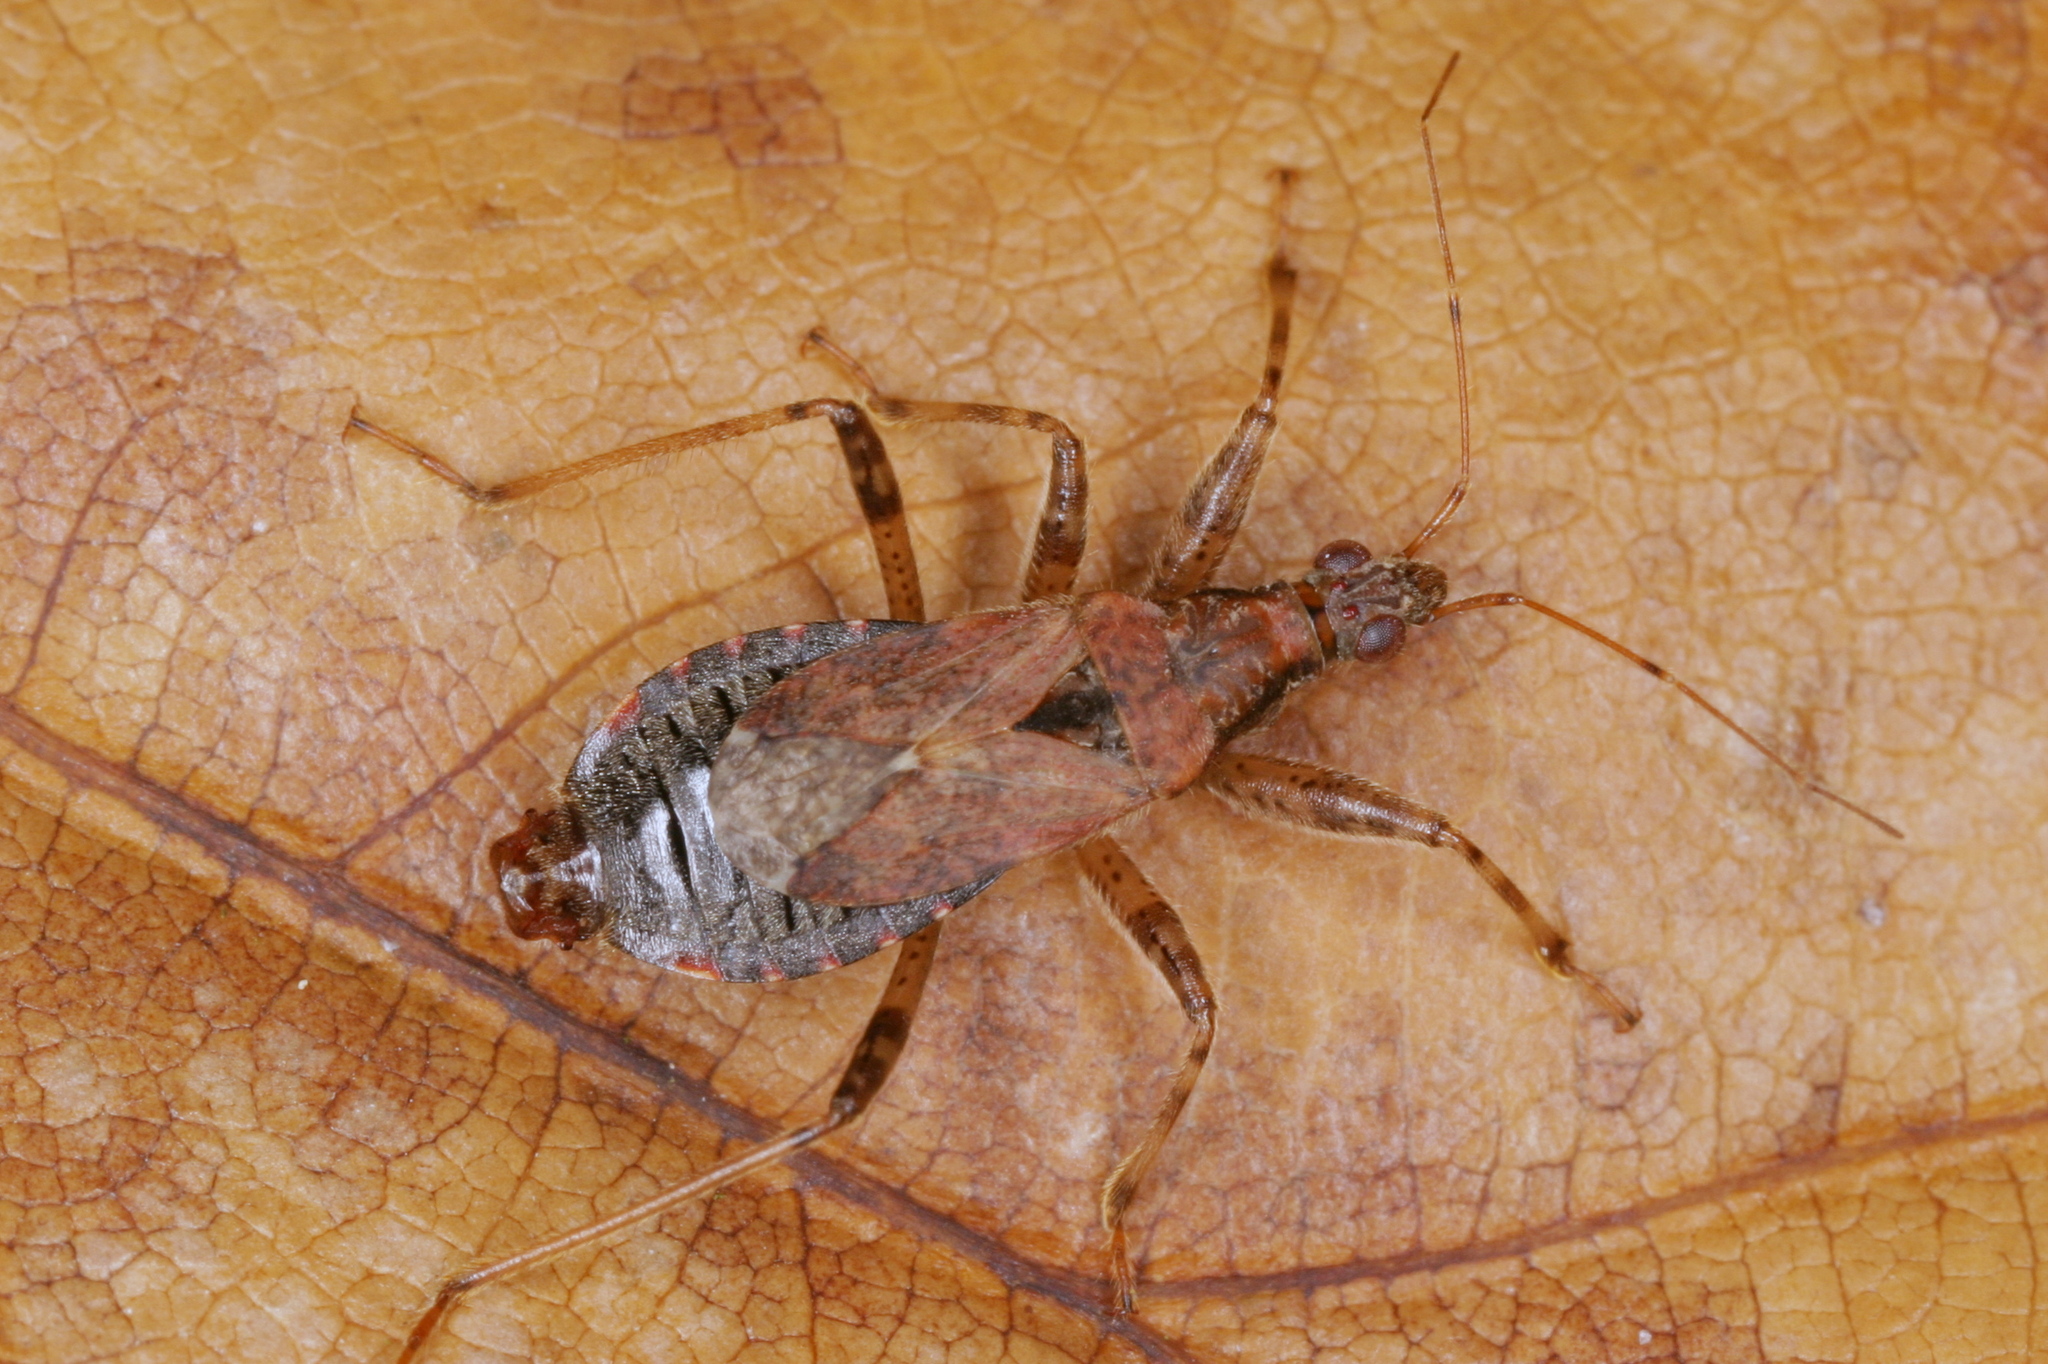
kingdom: Animalia
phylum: Arthropoda
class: Insecta
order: Hemiptera
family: Nabidae
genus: Himacerus
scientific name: Himacerus mirmicoides
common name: Ant damsel bug
